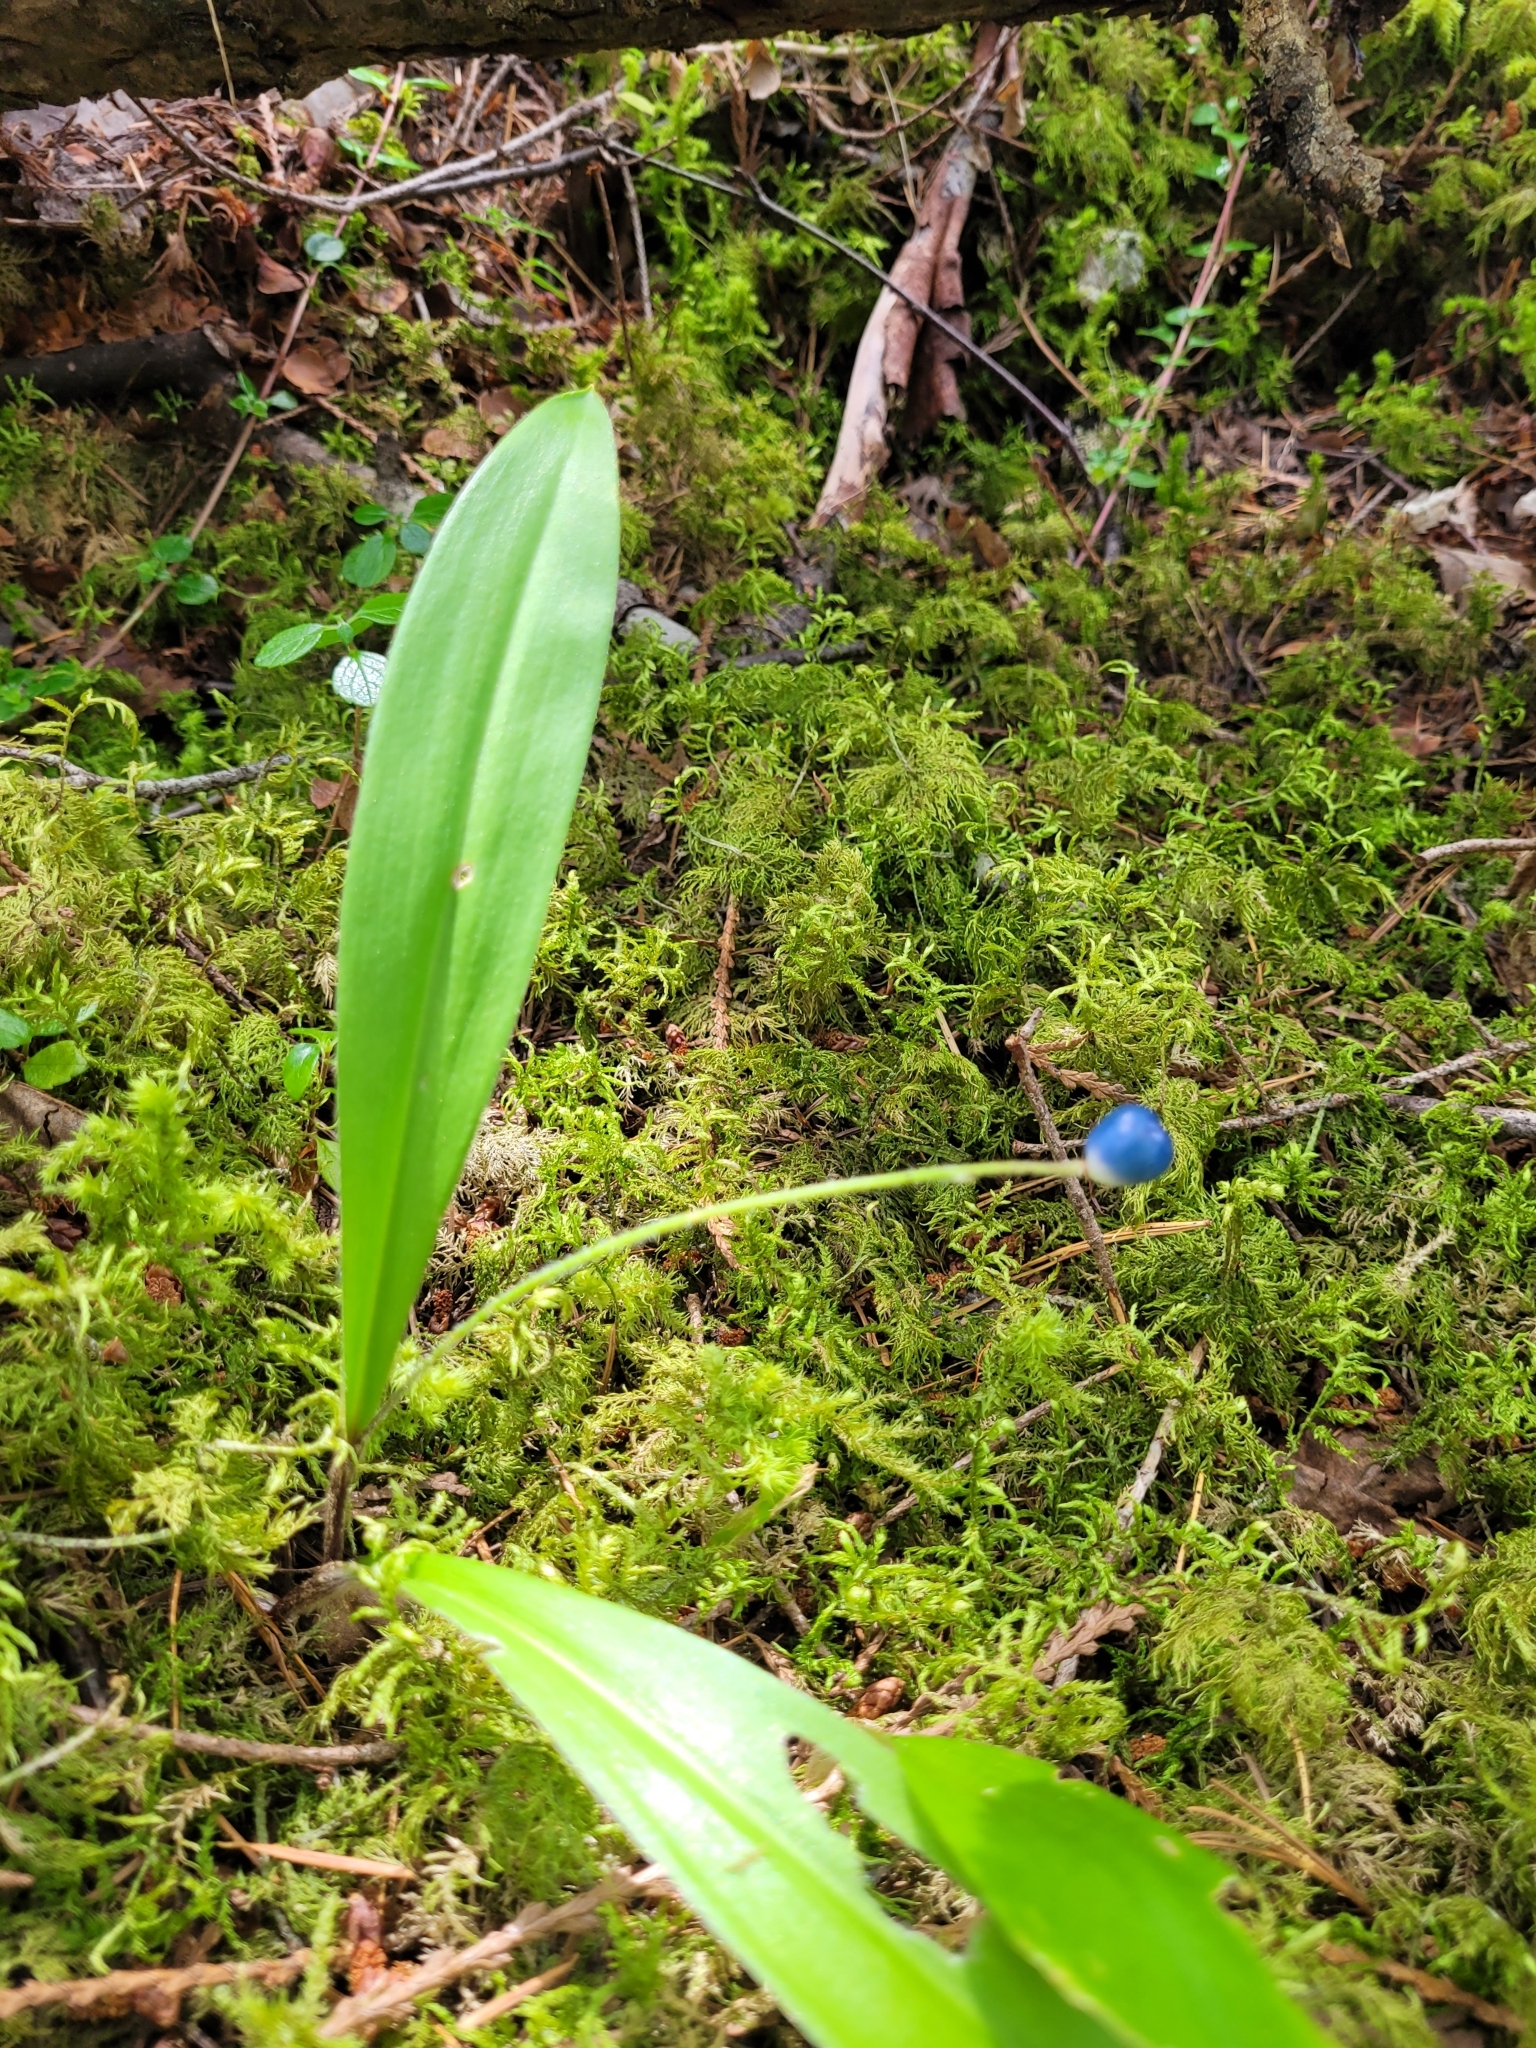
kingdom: Plantae
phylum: Tracheophyta
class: Liliopsida
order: Liliales
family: Liliaceae
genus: Clintonia
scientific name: Clintonia uniflora
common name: Queen's cup
